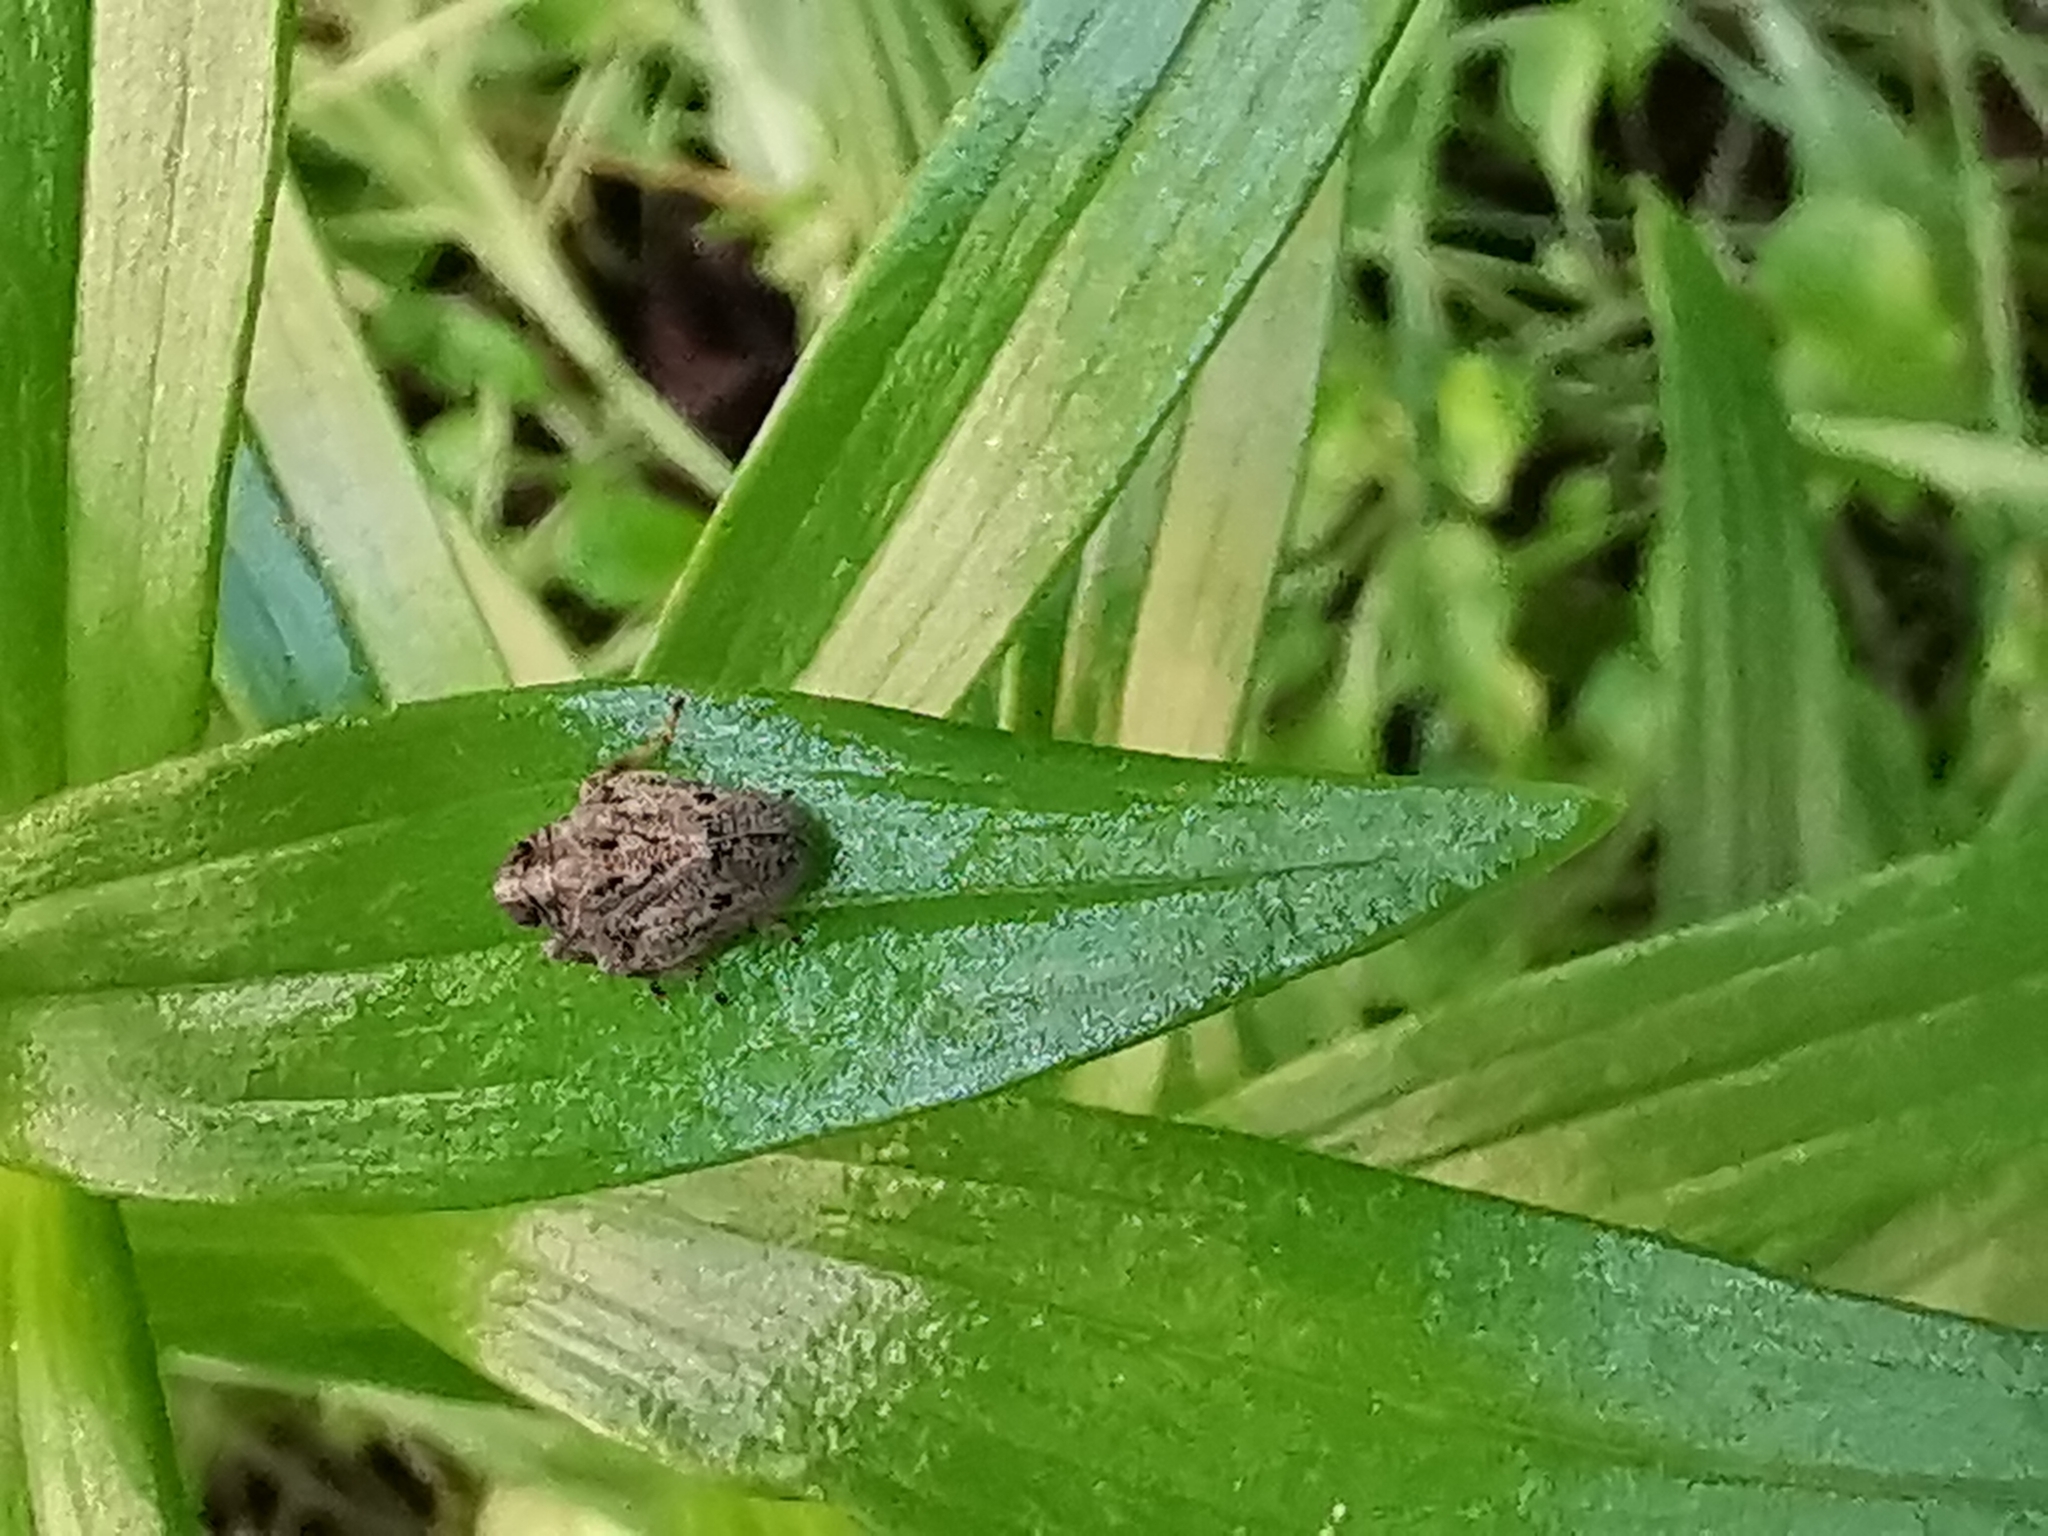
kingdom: Animalia
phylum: Arthropoda
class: Insecta
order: Hemiptera
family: Issidae
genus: Issus
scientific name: Issus coleoptratus
